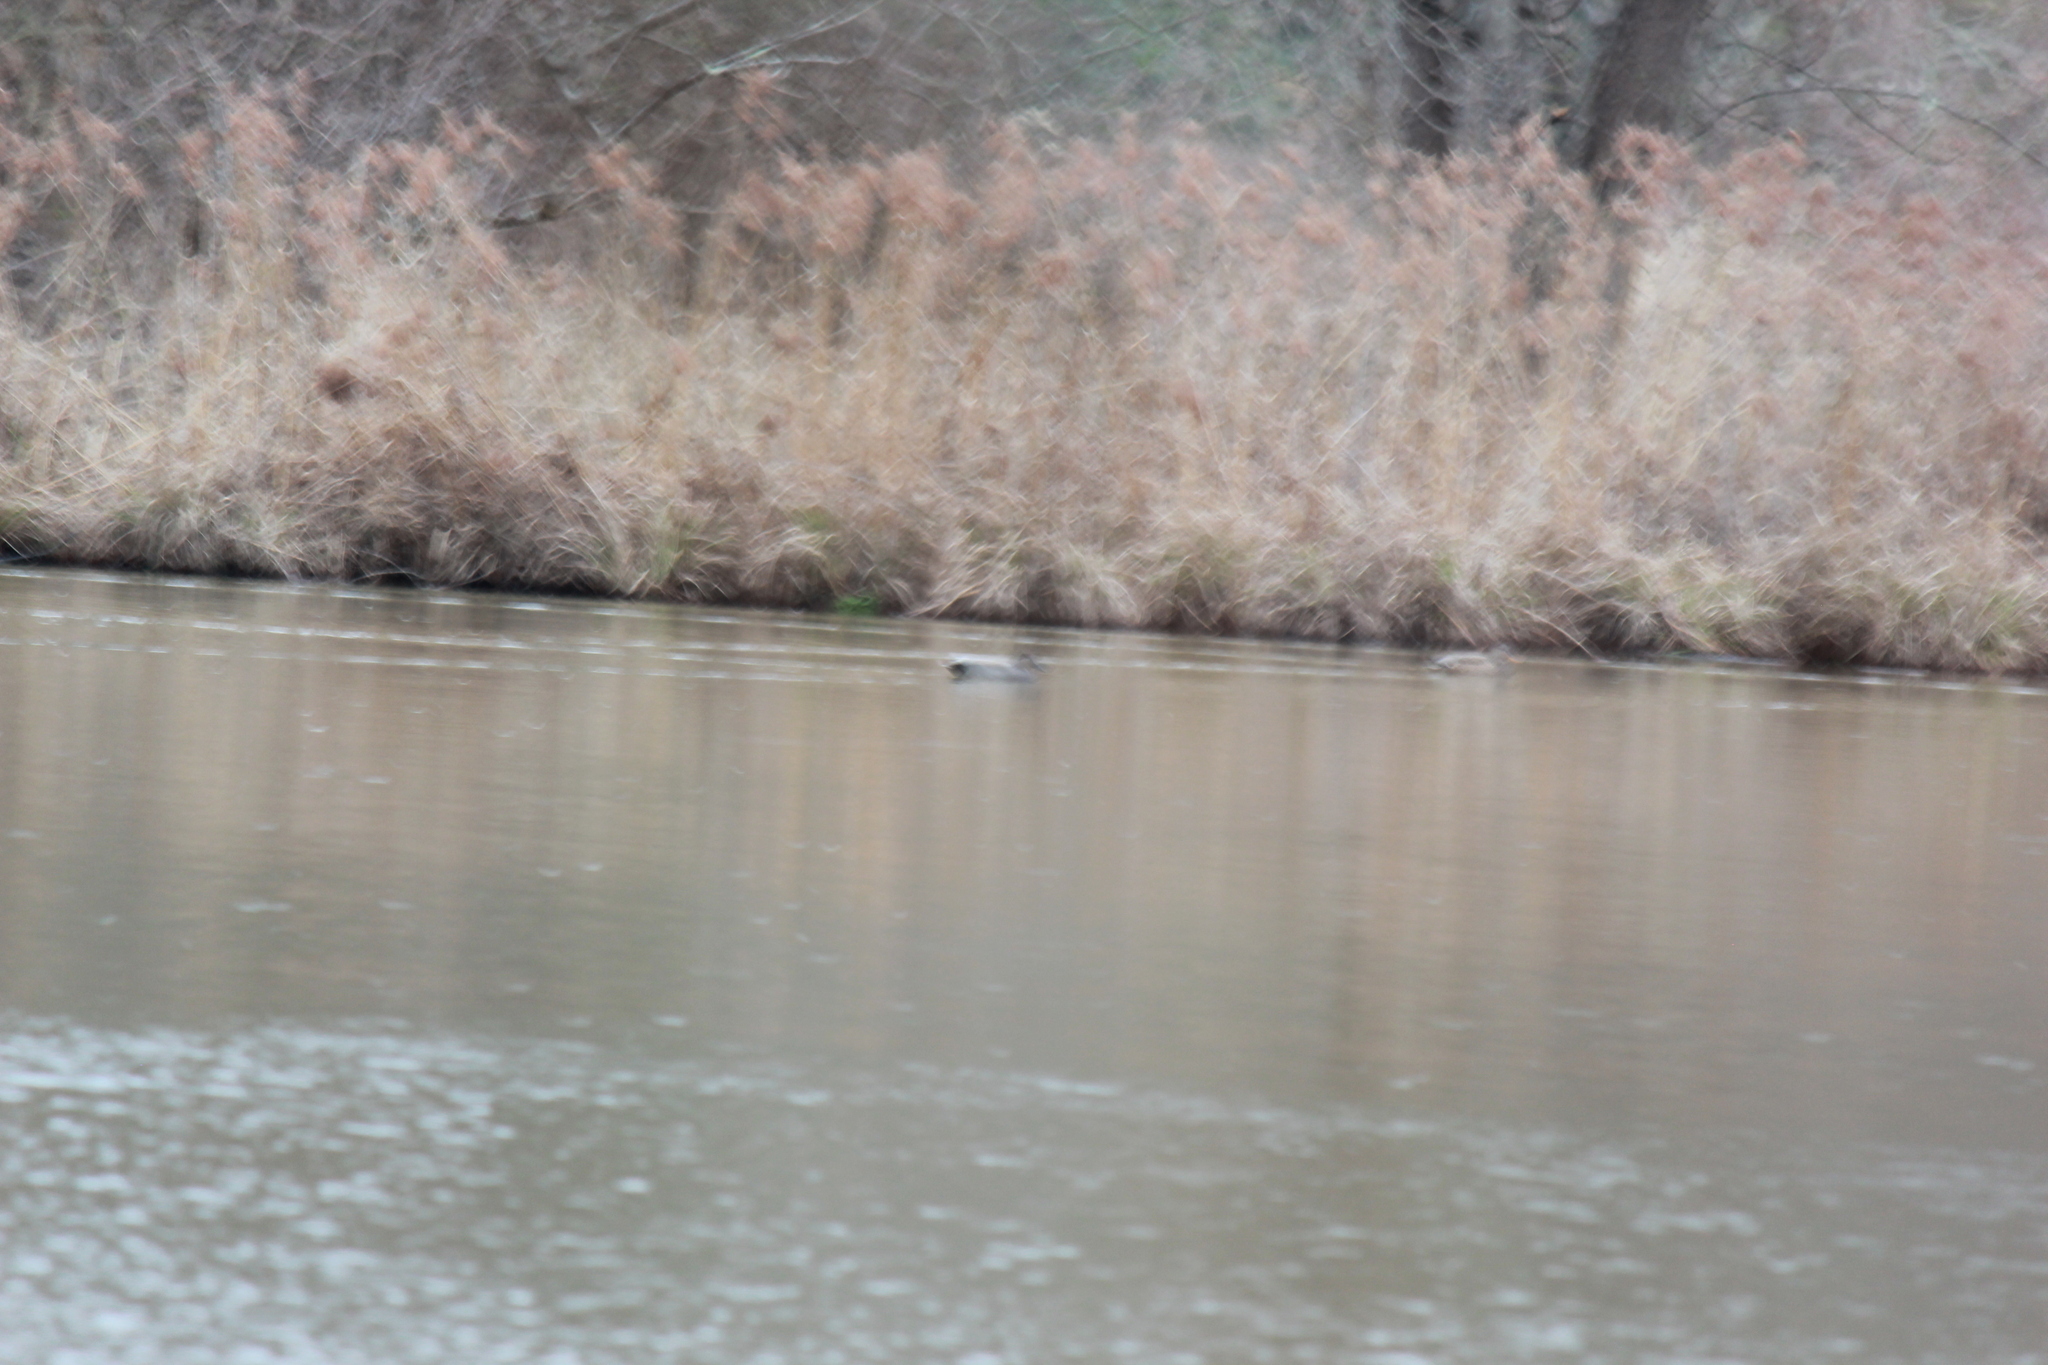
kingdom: Animalia
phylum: Chordata
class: Aves
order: Anseriformes
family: Anatidae
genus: Mareca
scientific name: Mareca strepera
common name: Gadwall
